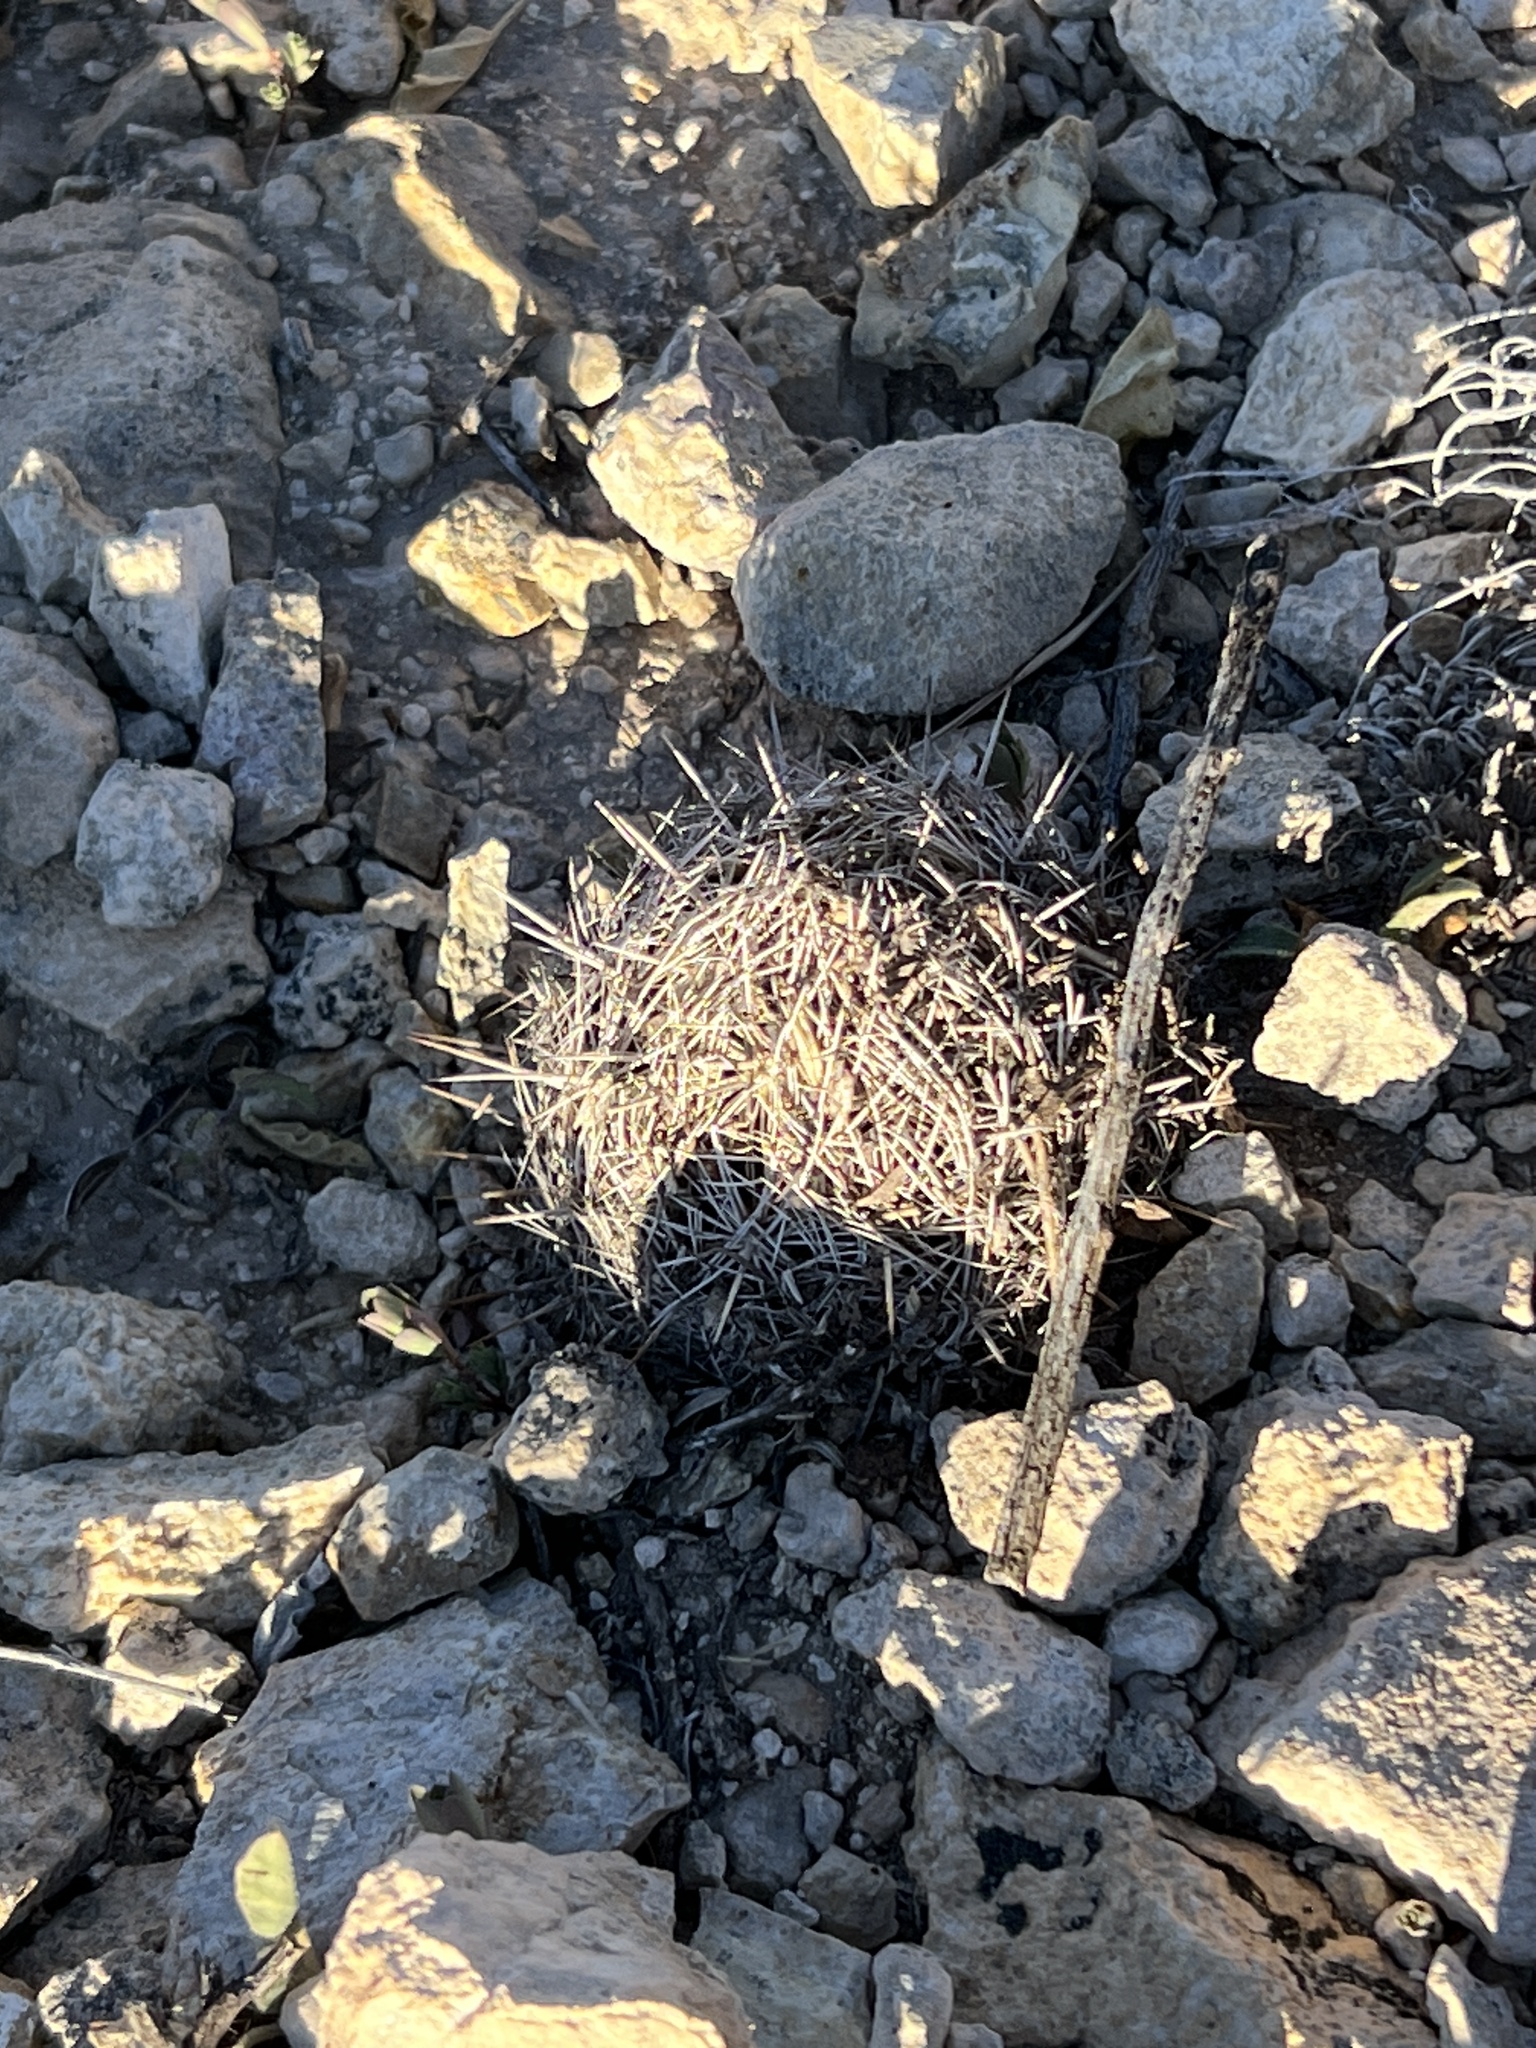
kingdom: Plantae
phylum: Tracheophyta
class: Magnoliopsida
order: Caryophyllales
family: Cactaceae
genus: Coryphantha
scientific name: Coryphantha echinus
